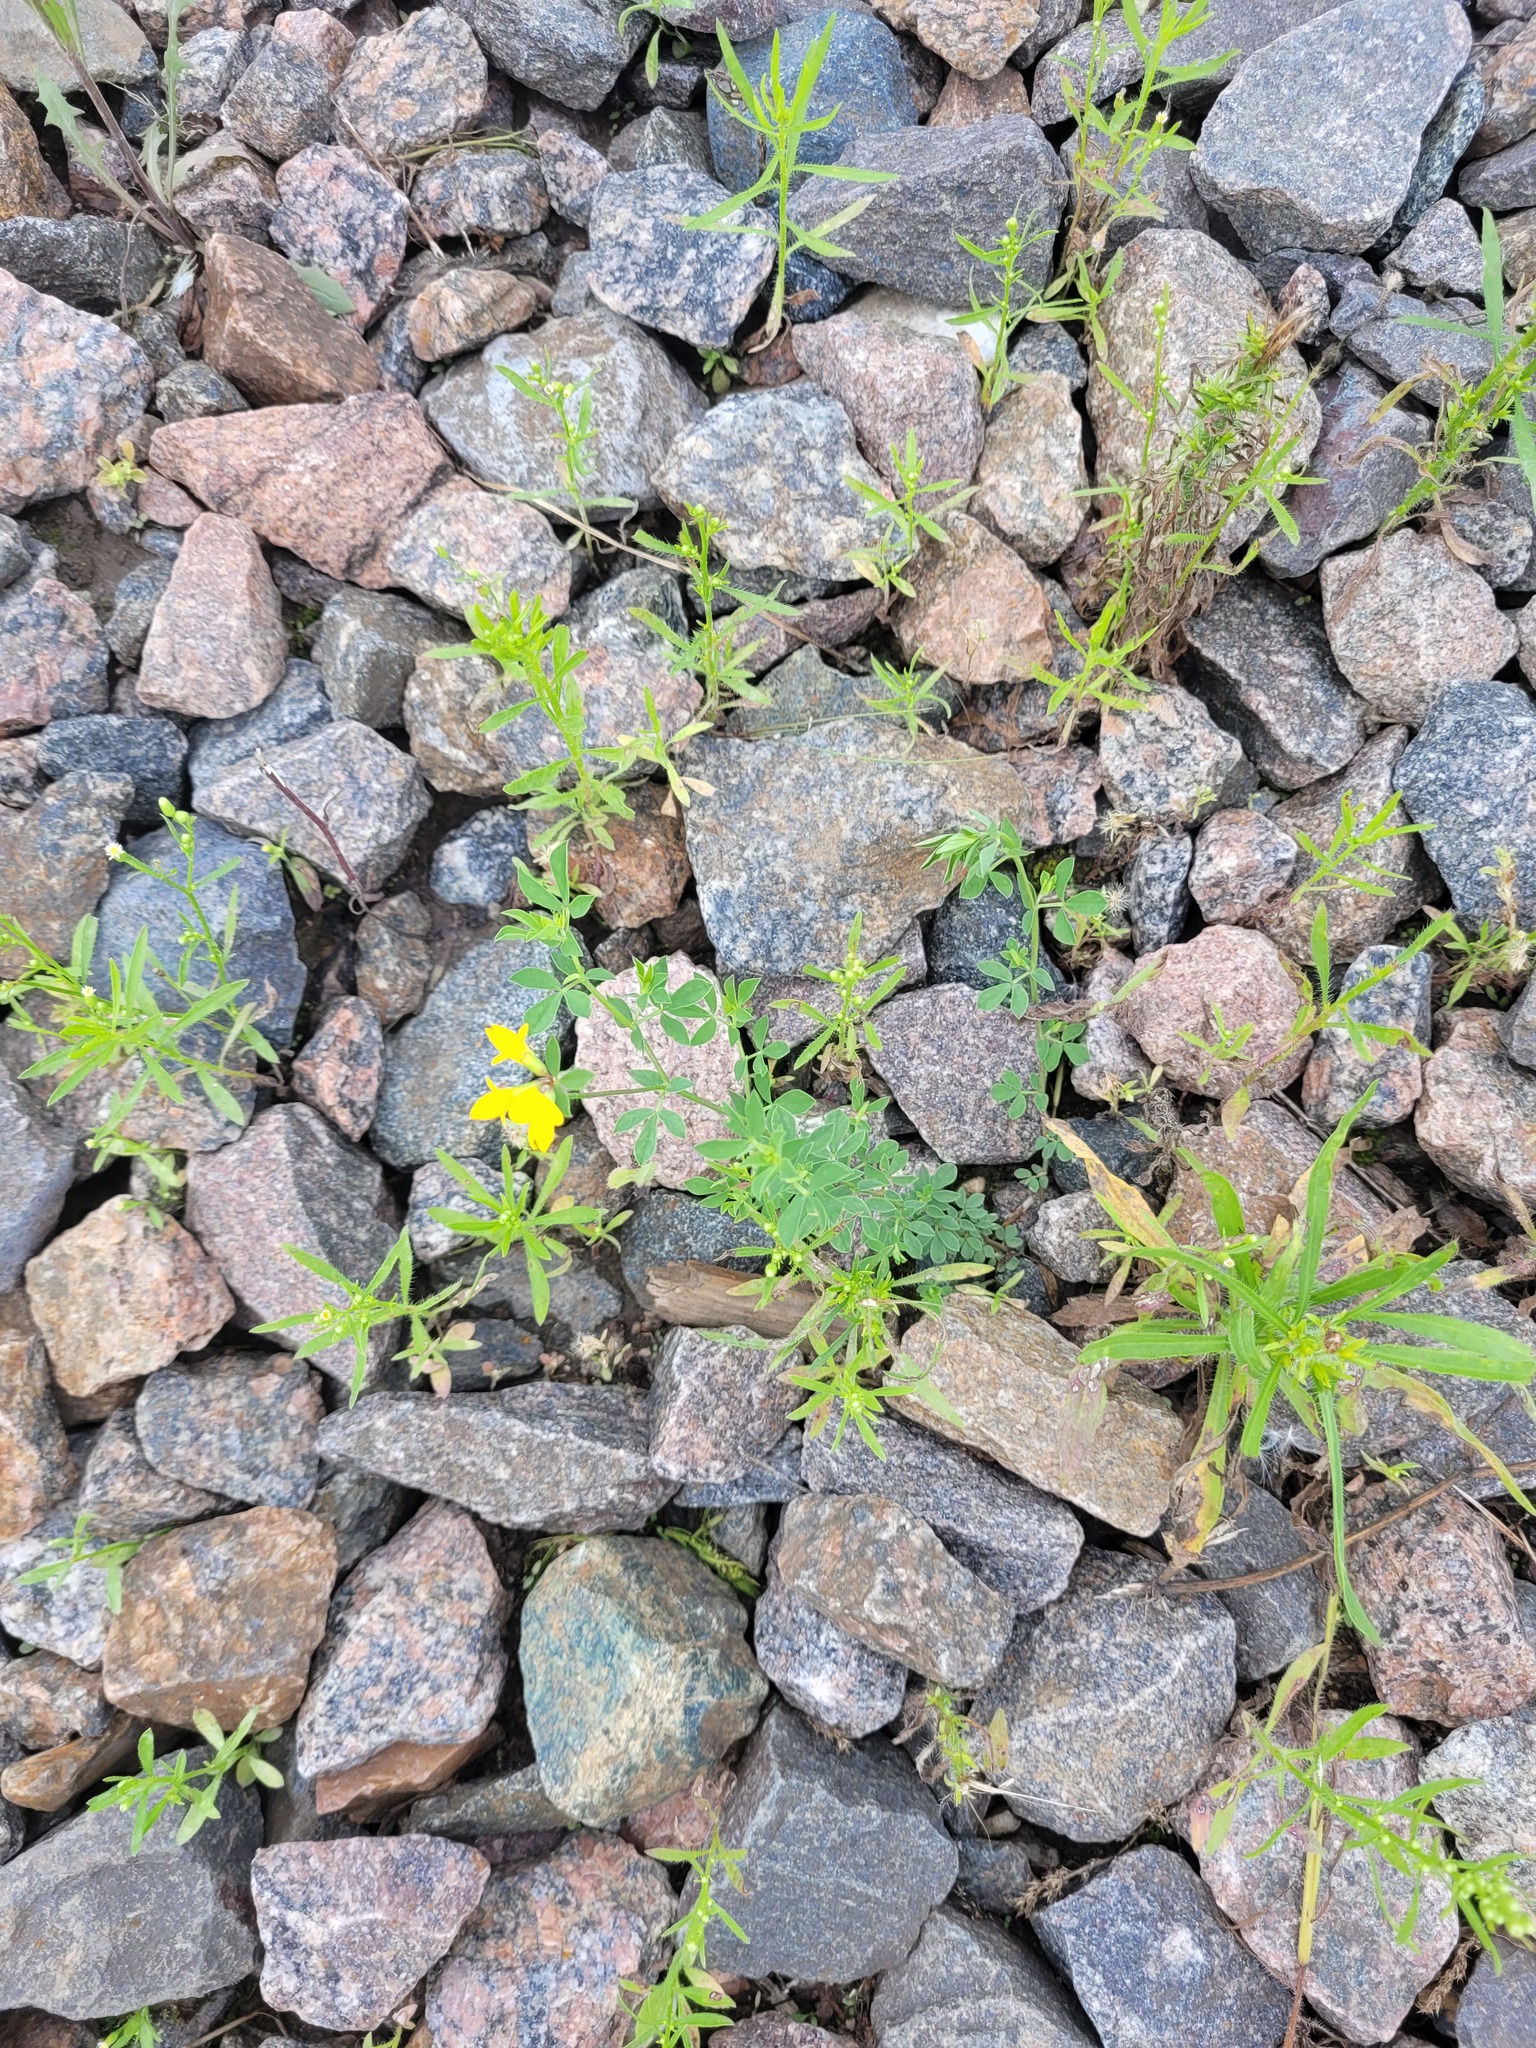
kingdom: Plantae
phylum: Tracheophyta
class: Magnoliopsida
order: Fabales
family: Fabaceae
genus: Lotus
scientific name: Lotus corniculatus
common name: Common bird's-foot-trefoil
